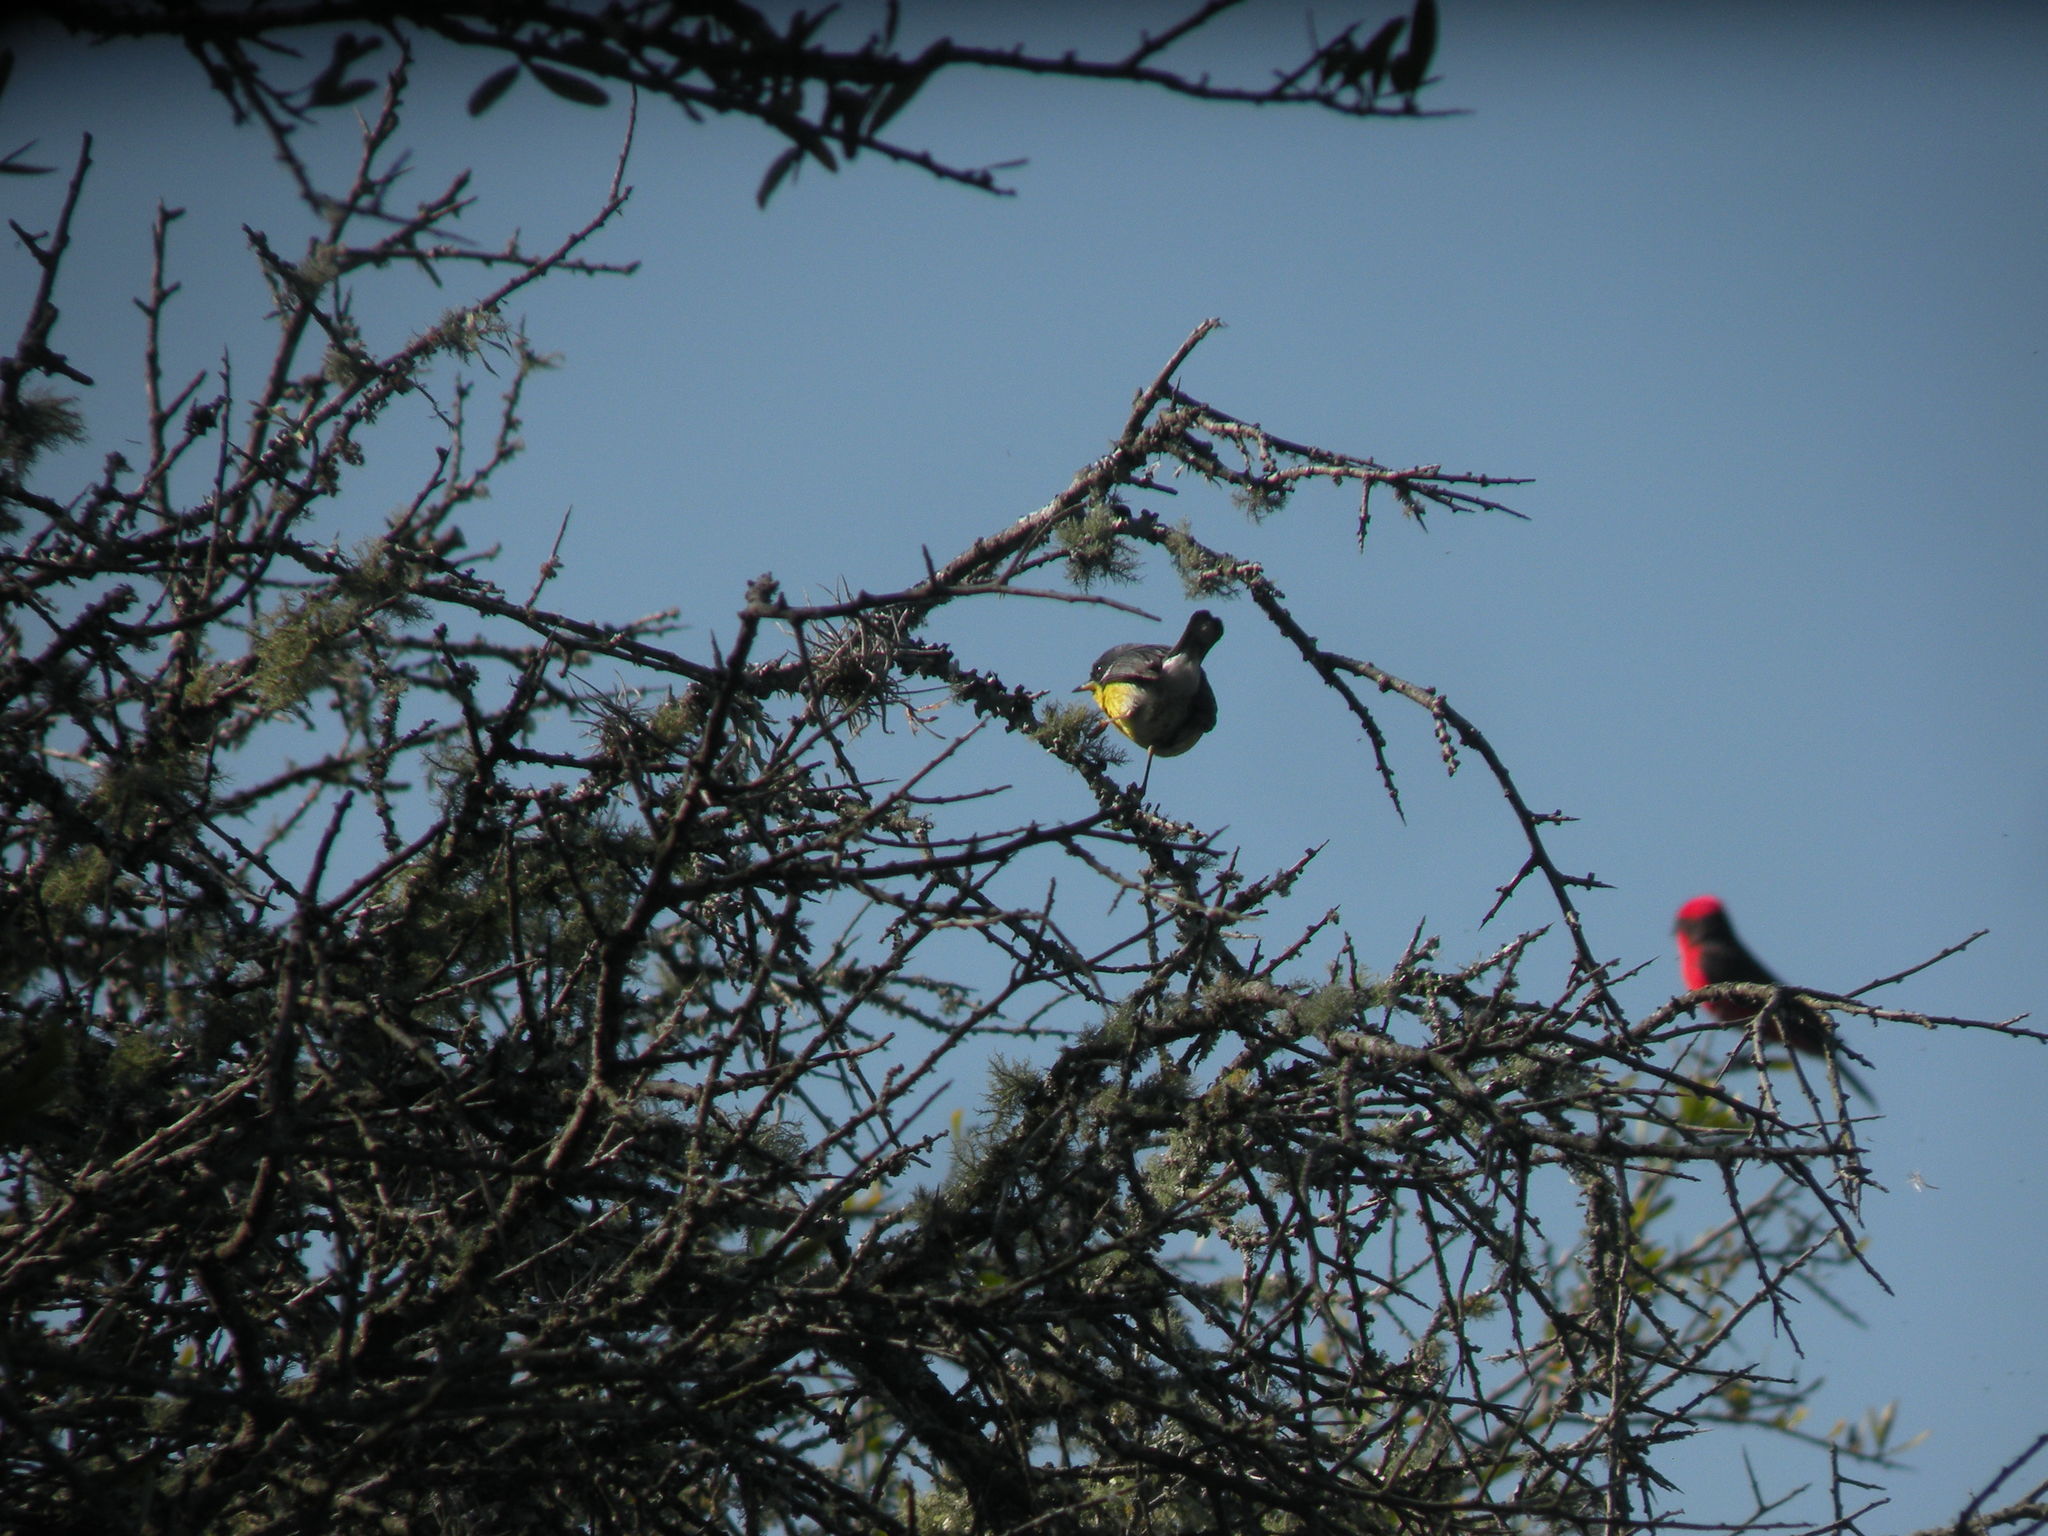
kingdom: Animalia
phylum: Chordata
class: Aves
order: Passeriformes
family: Parulidae
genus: Setophaga
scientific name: Setophaga pitiayumi
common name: Tropical parula
